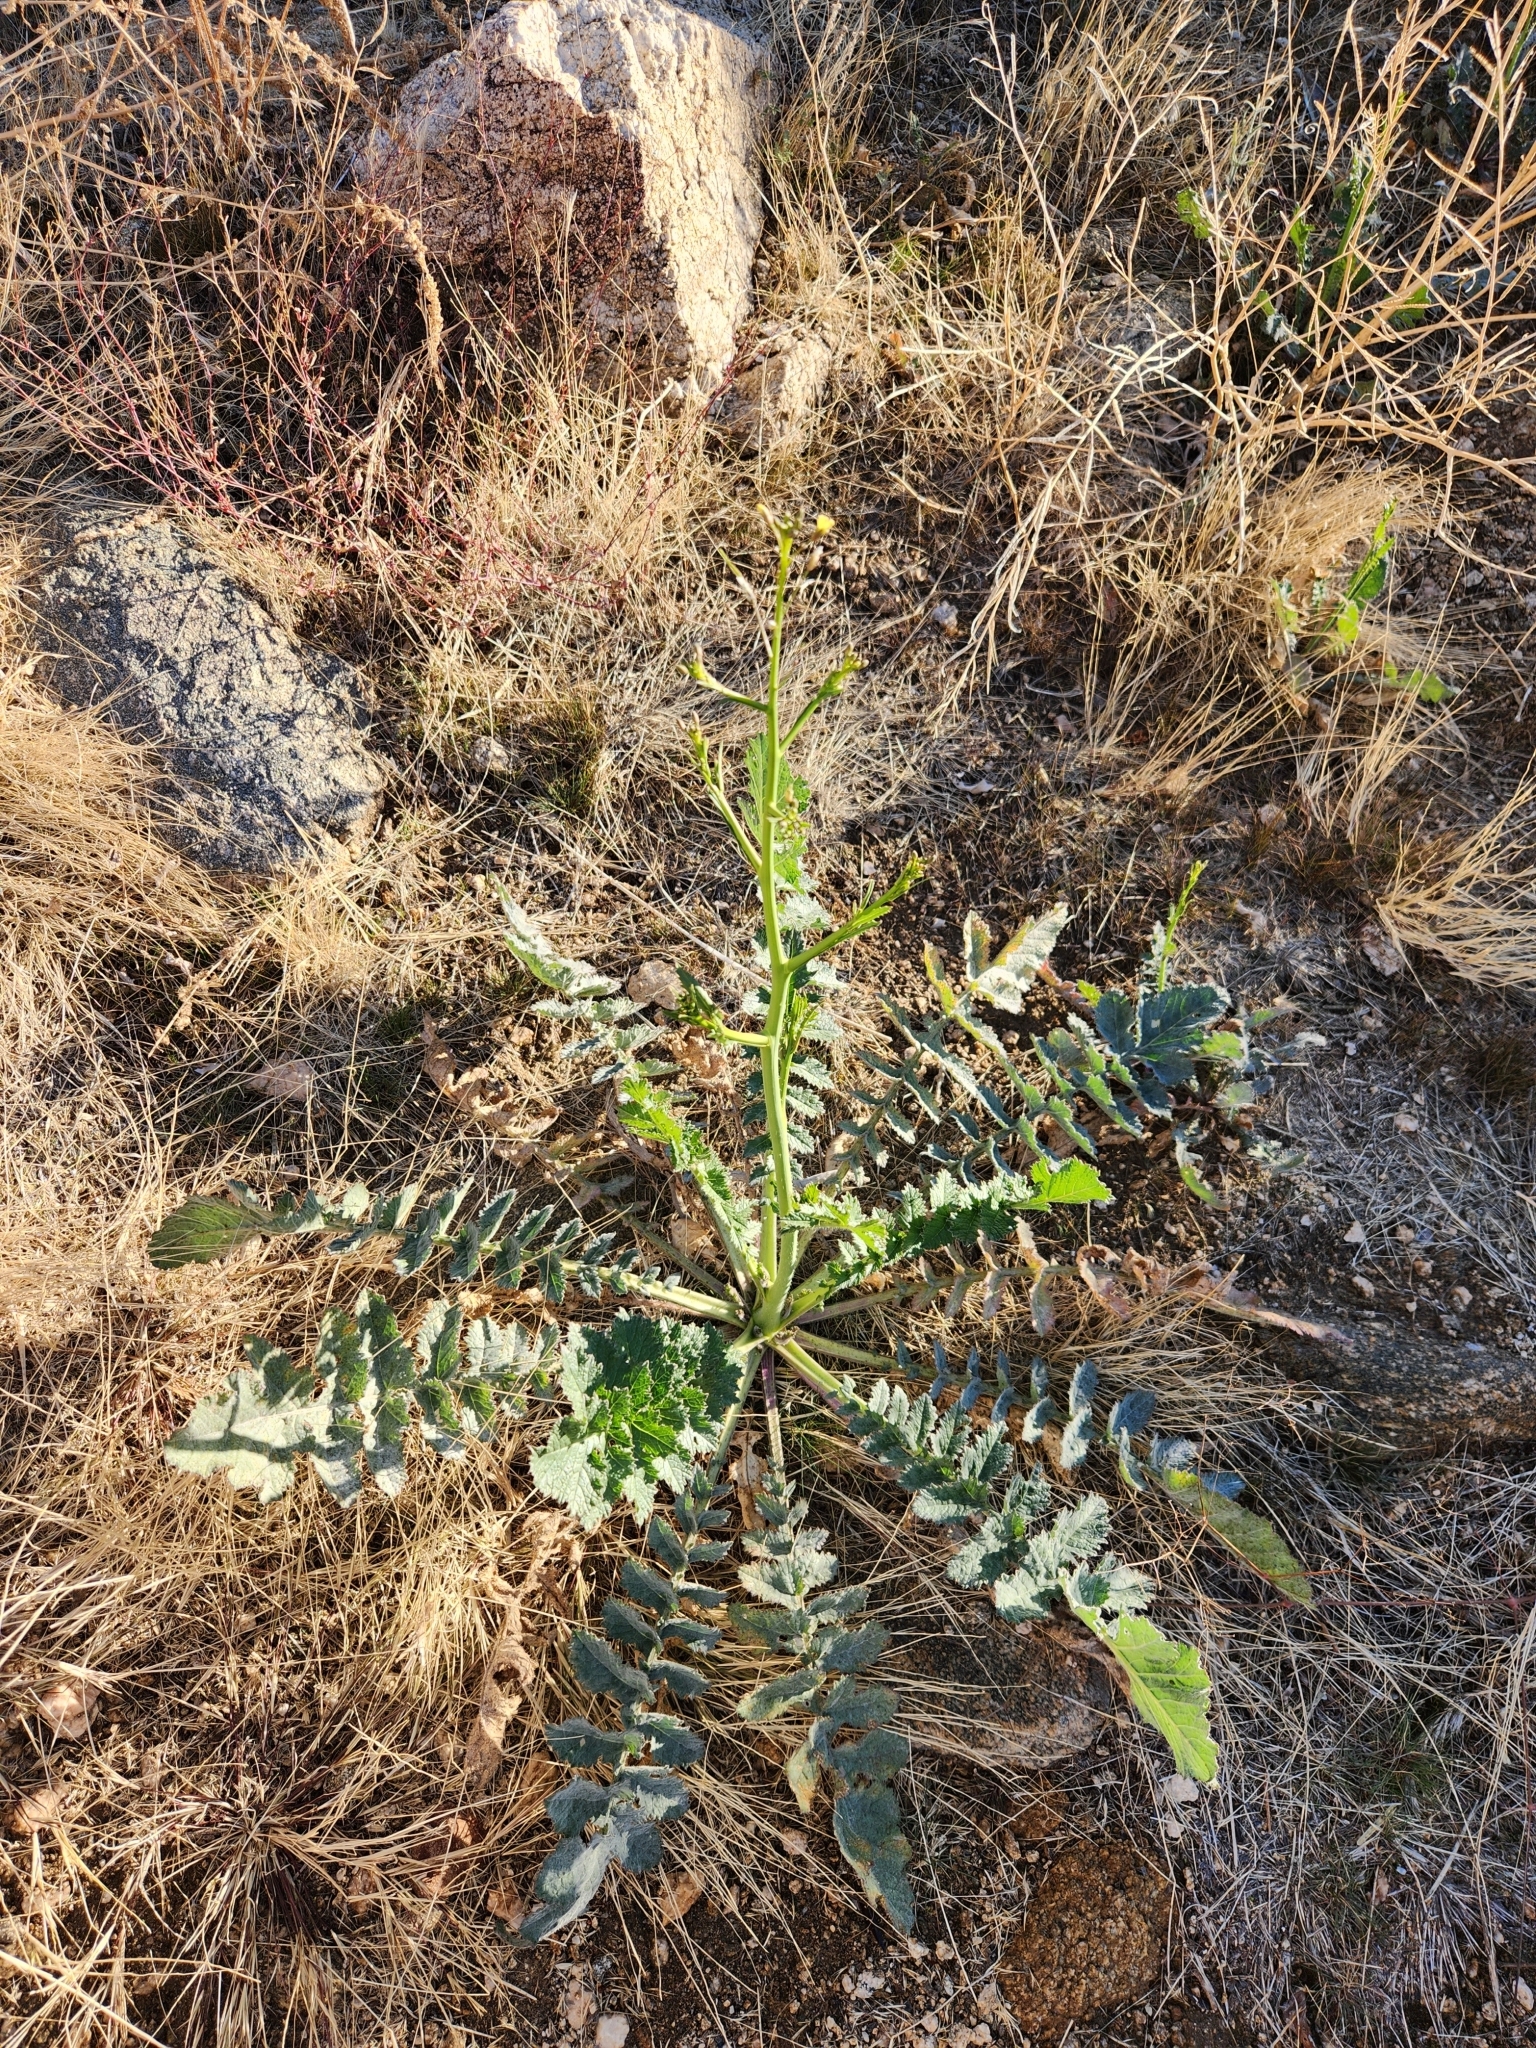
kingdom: Plantae
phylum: Tracheophyta
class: Magnoliopsida
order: Brassicales
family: Brassicaceae
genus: Brassica
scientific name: Brassica tournefortii
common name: Pale cabbage
